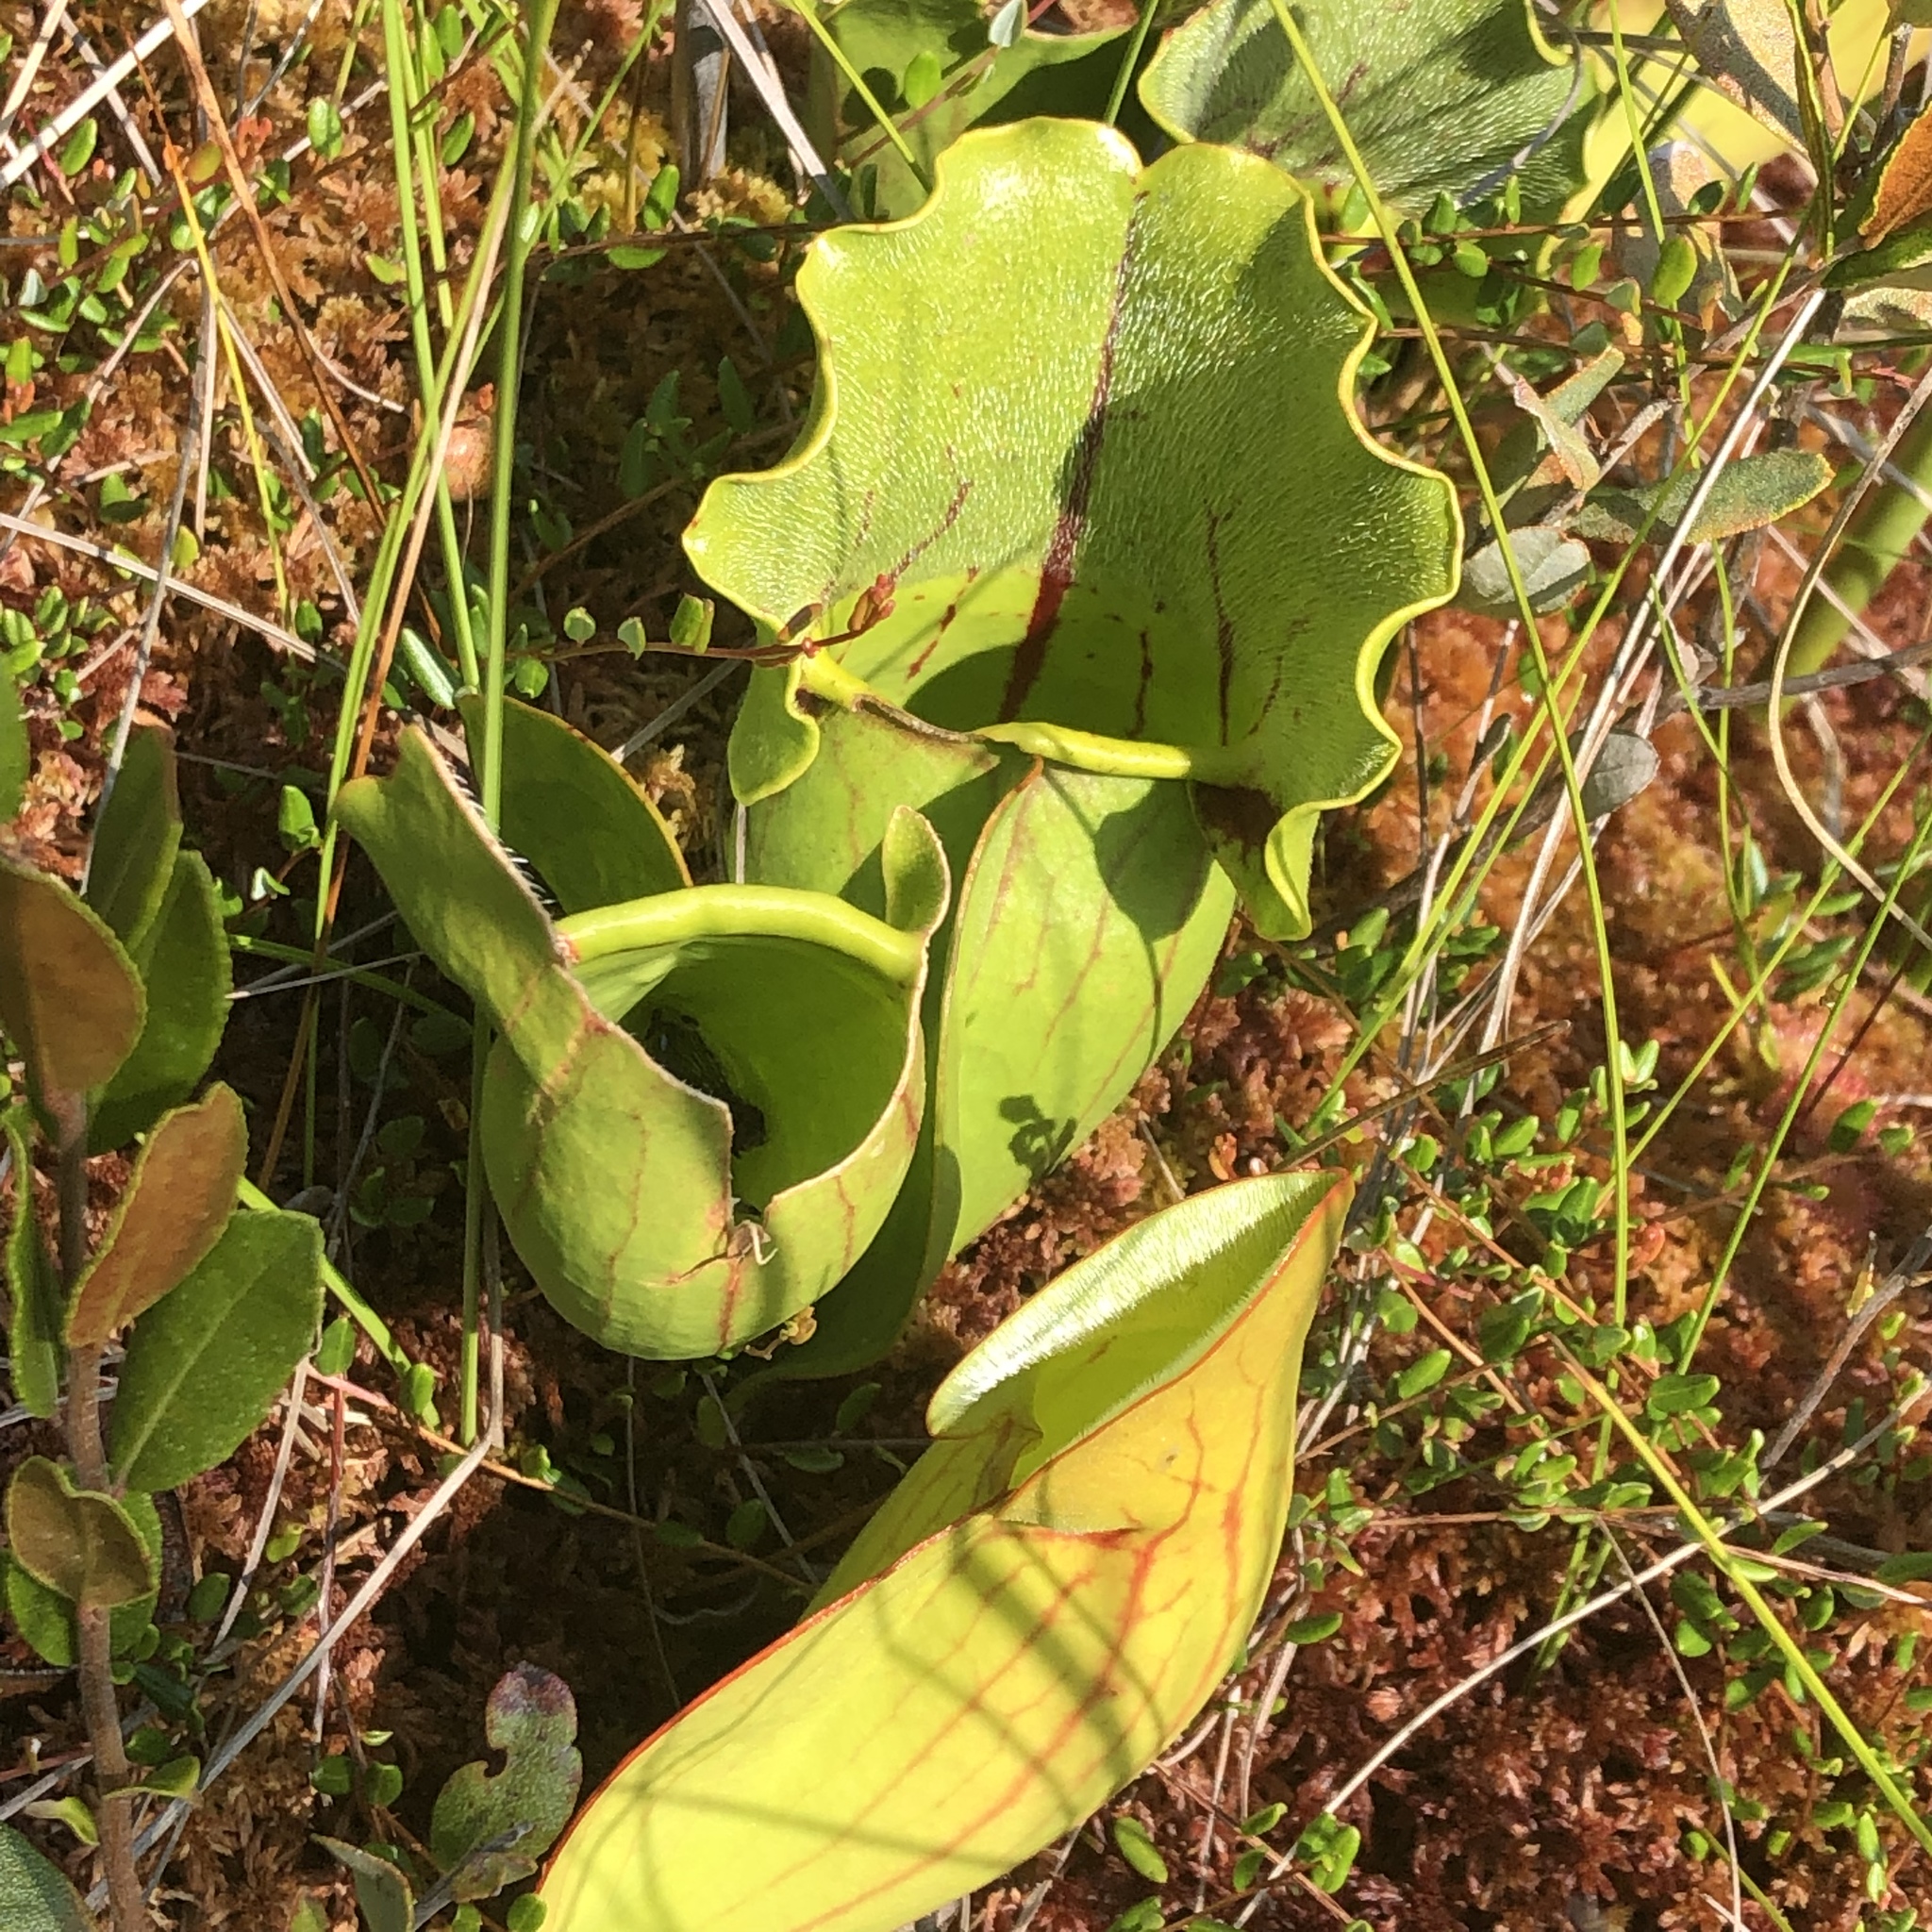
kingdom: Plantae
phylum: Tracheophyta
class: Magnoliopsida
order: Ericales
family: Sarraceniaceae
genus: Sarracenia
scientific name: Sarracenia purpurea
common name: Pitcherplant
